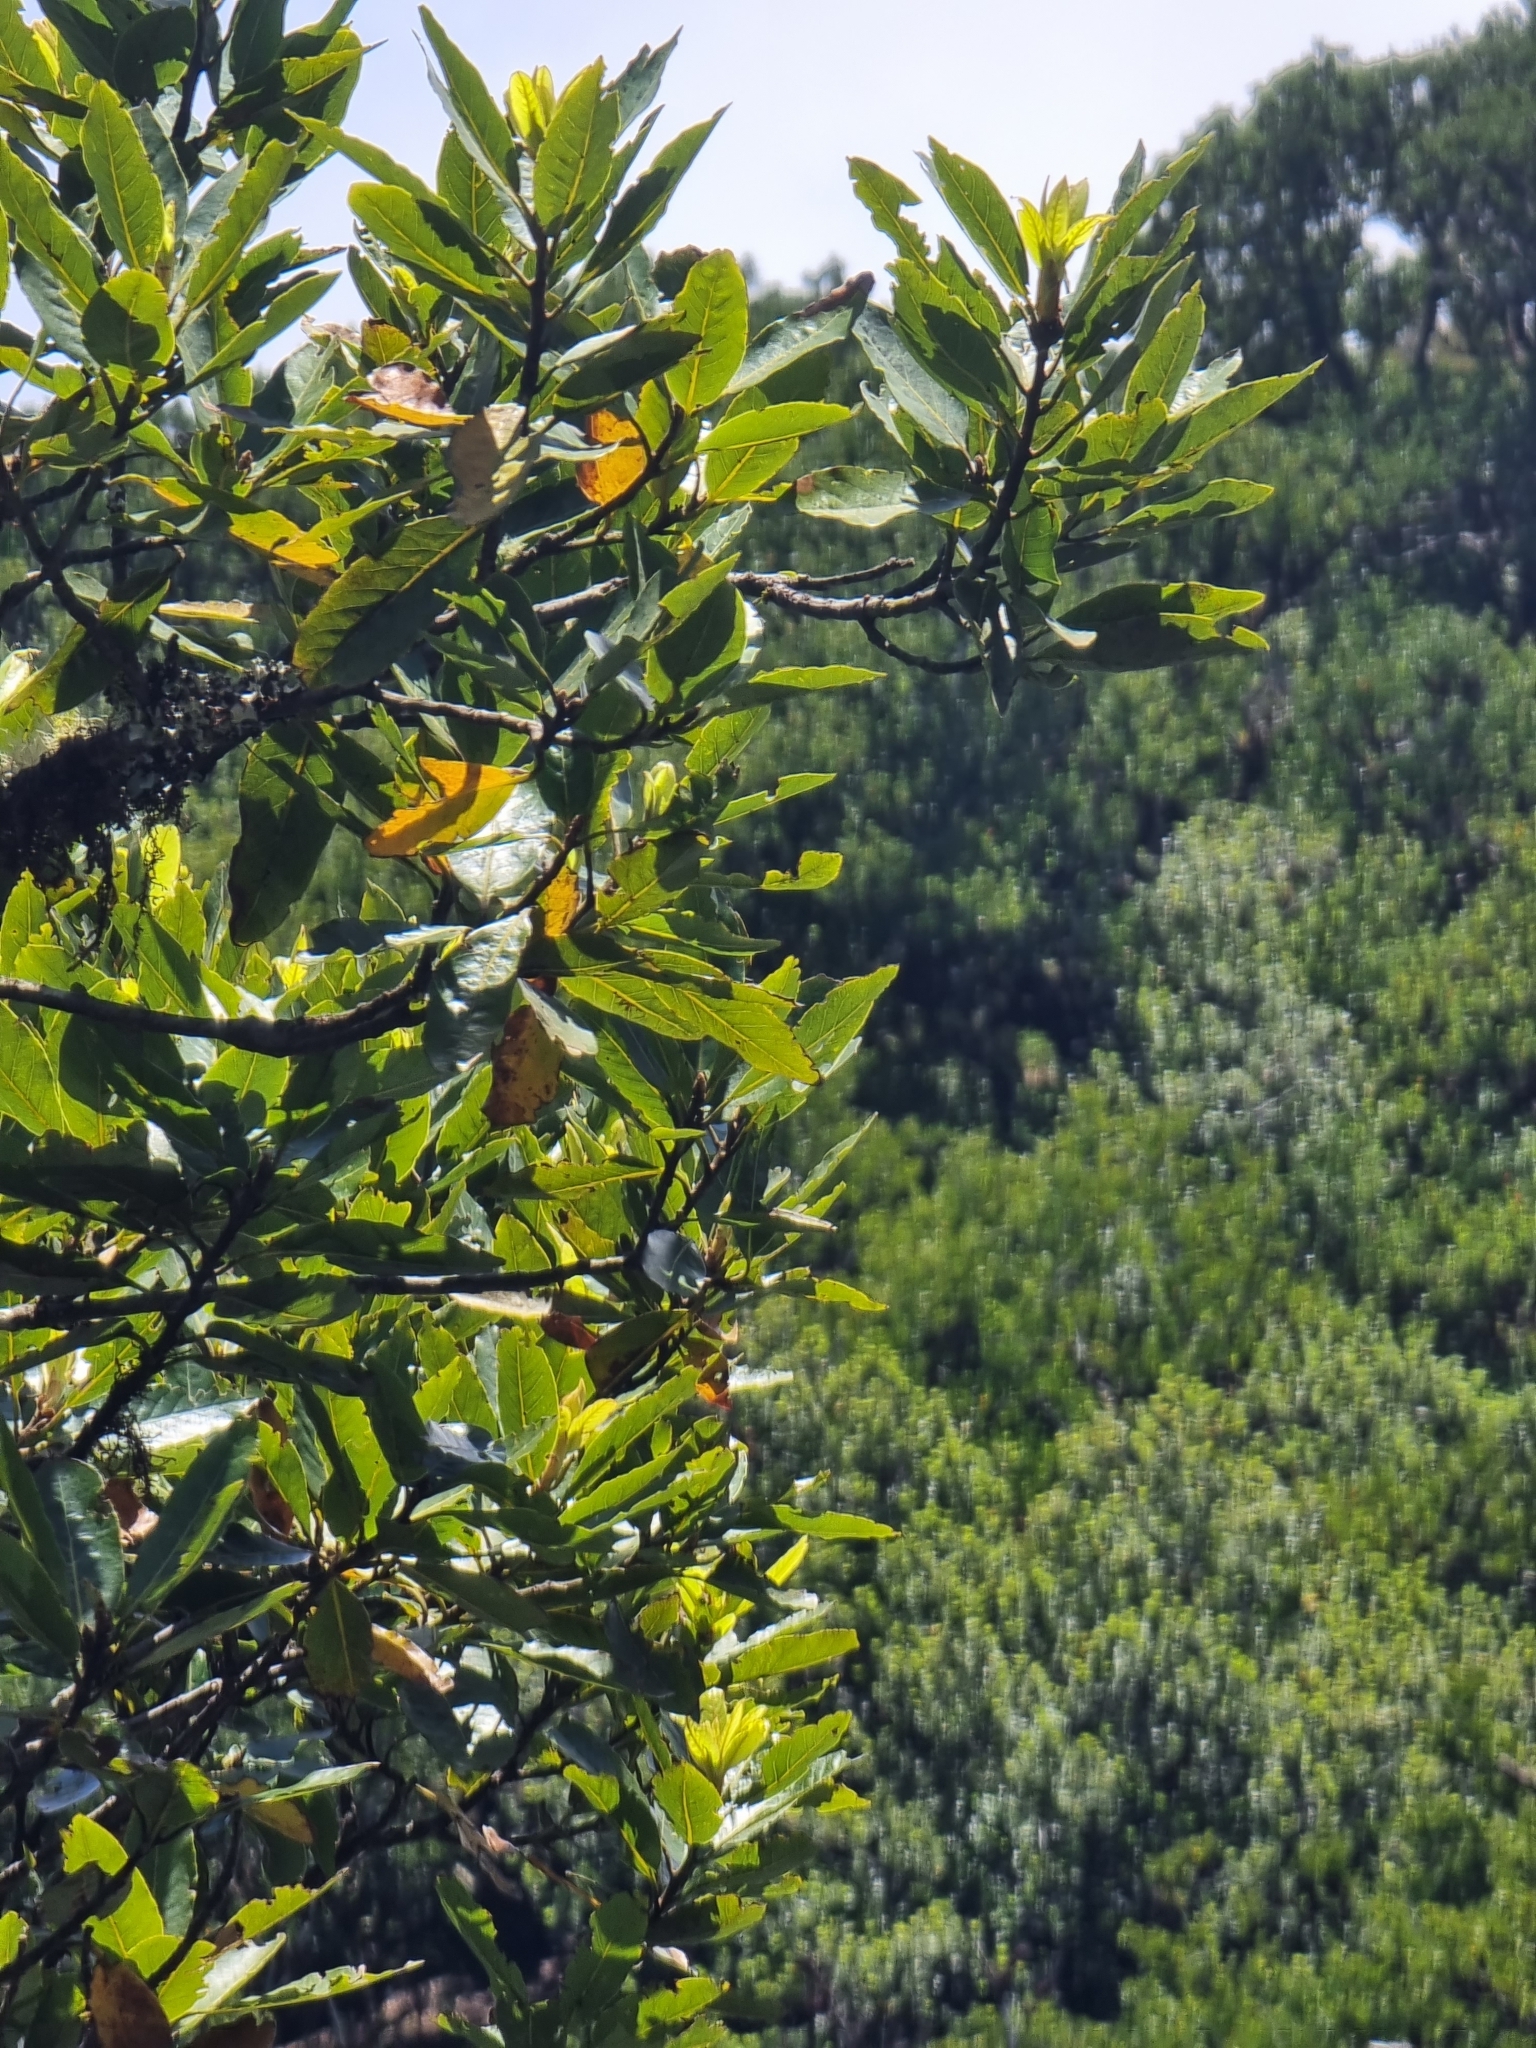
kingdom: Plantae
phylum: Tracheophyta
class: Magnoliopsida
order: Laurales
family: Lauraceae
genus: Laurus
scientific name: Laurus novocanariensis
